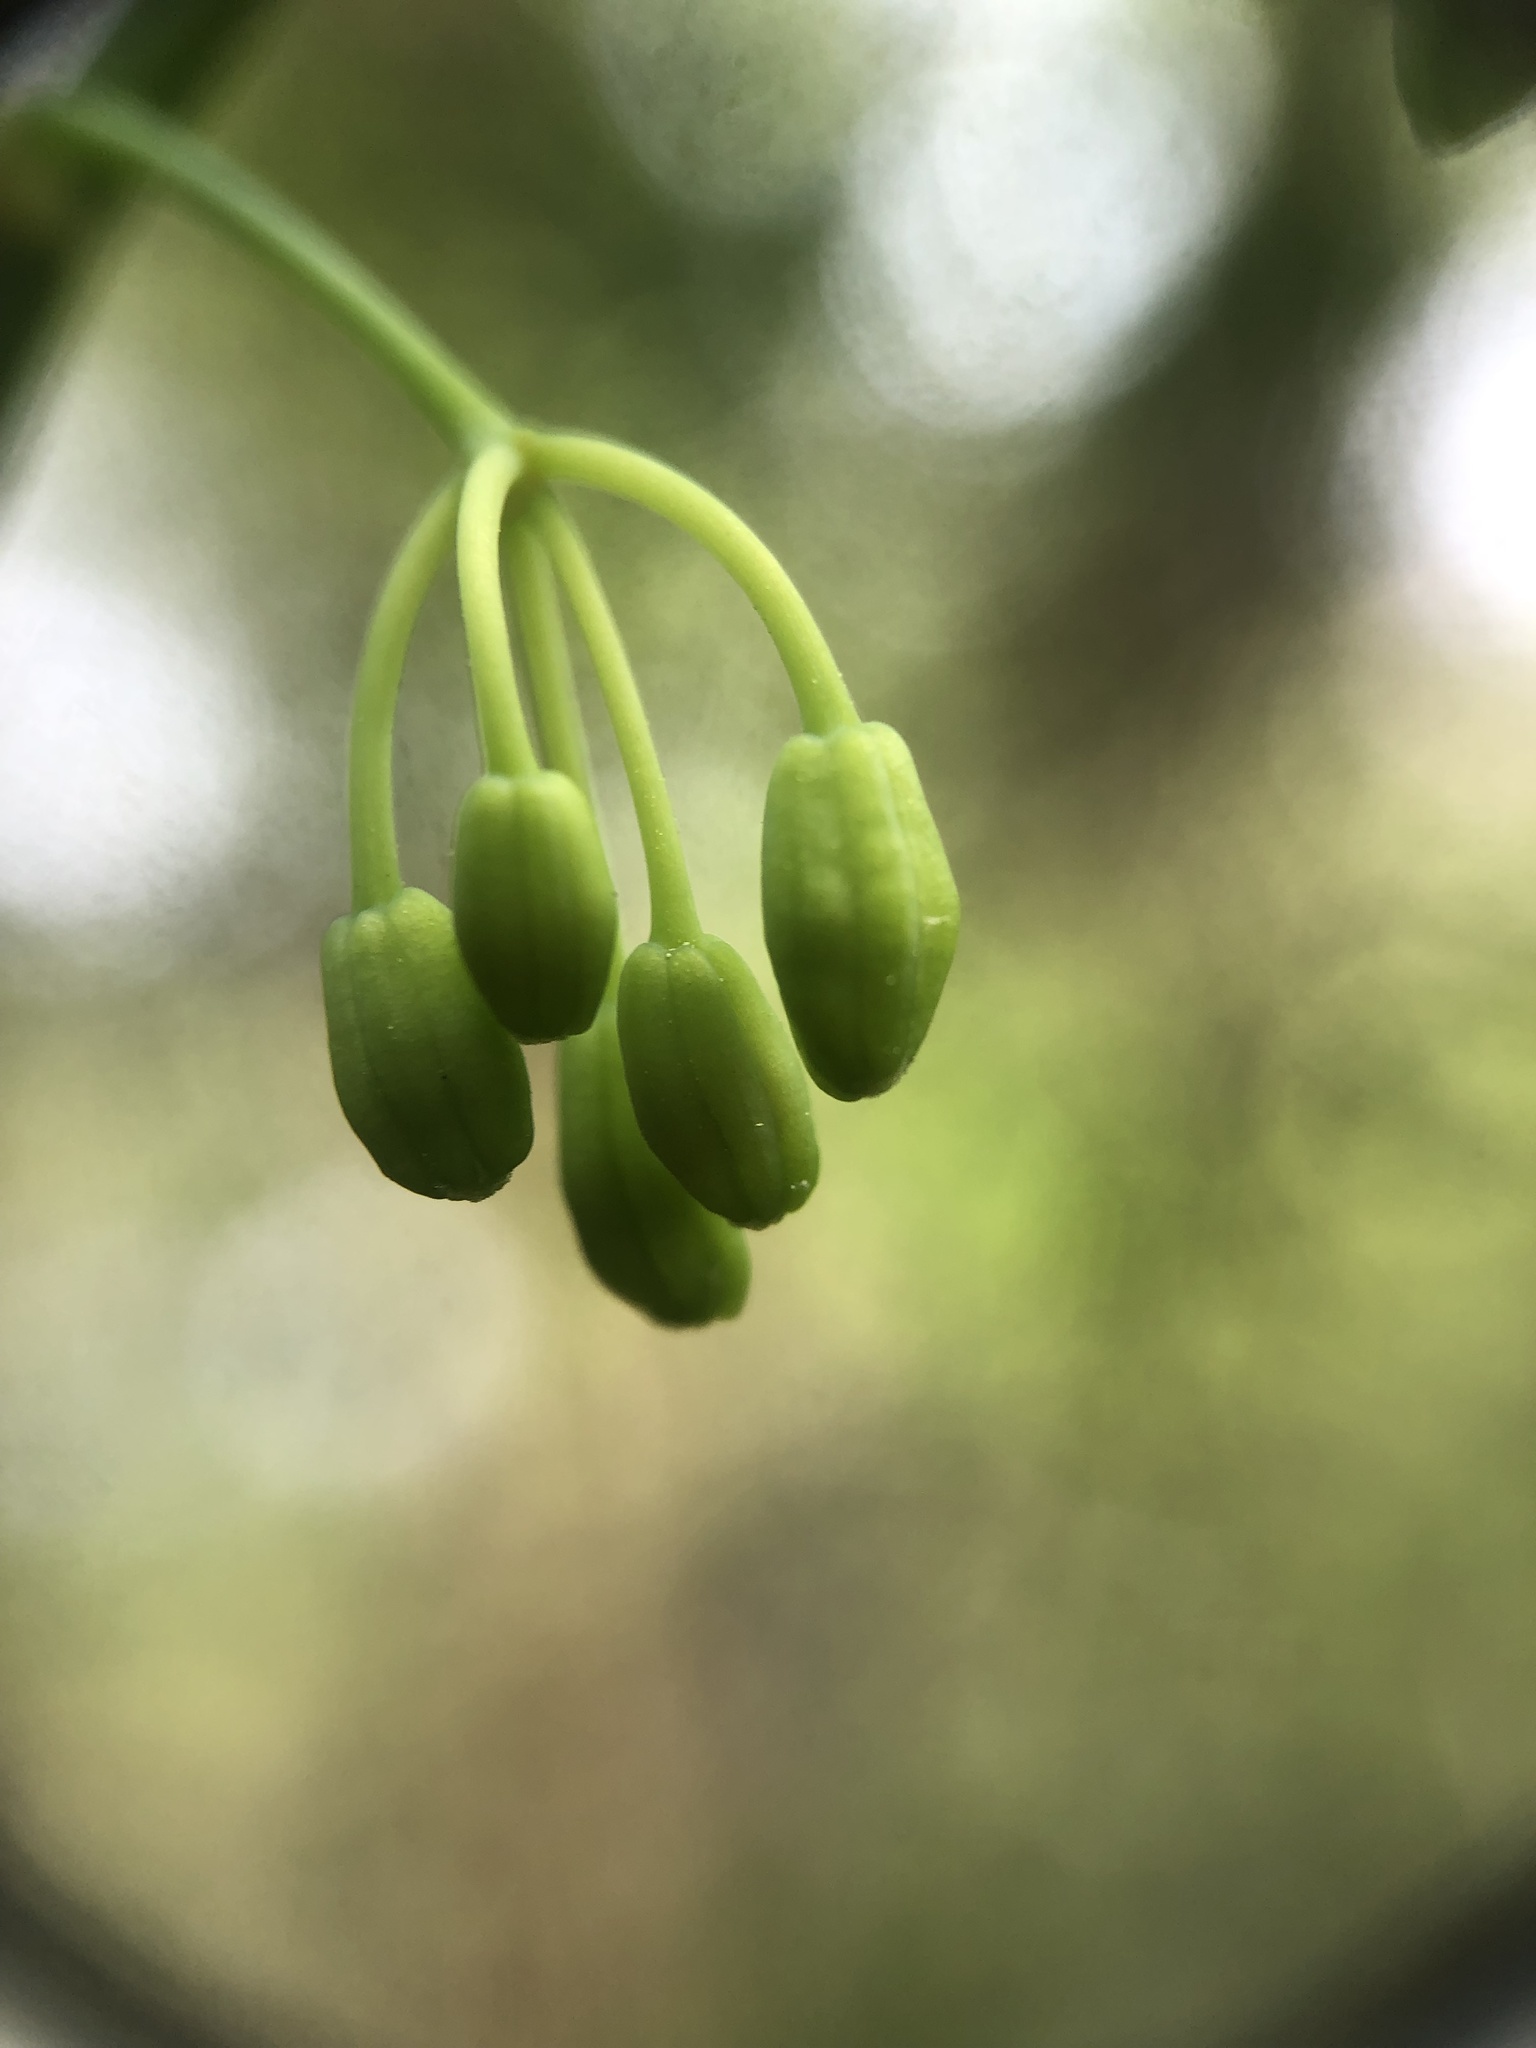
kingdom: Plantae
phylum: Tracheophyta
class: Liliopsida
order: Liliales
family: Smilacaceae
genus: Smilax
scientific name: Smilax rotundifolia
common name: Bullbriar
